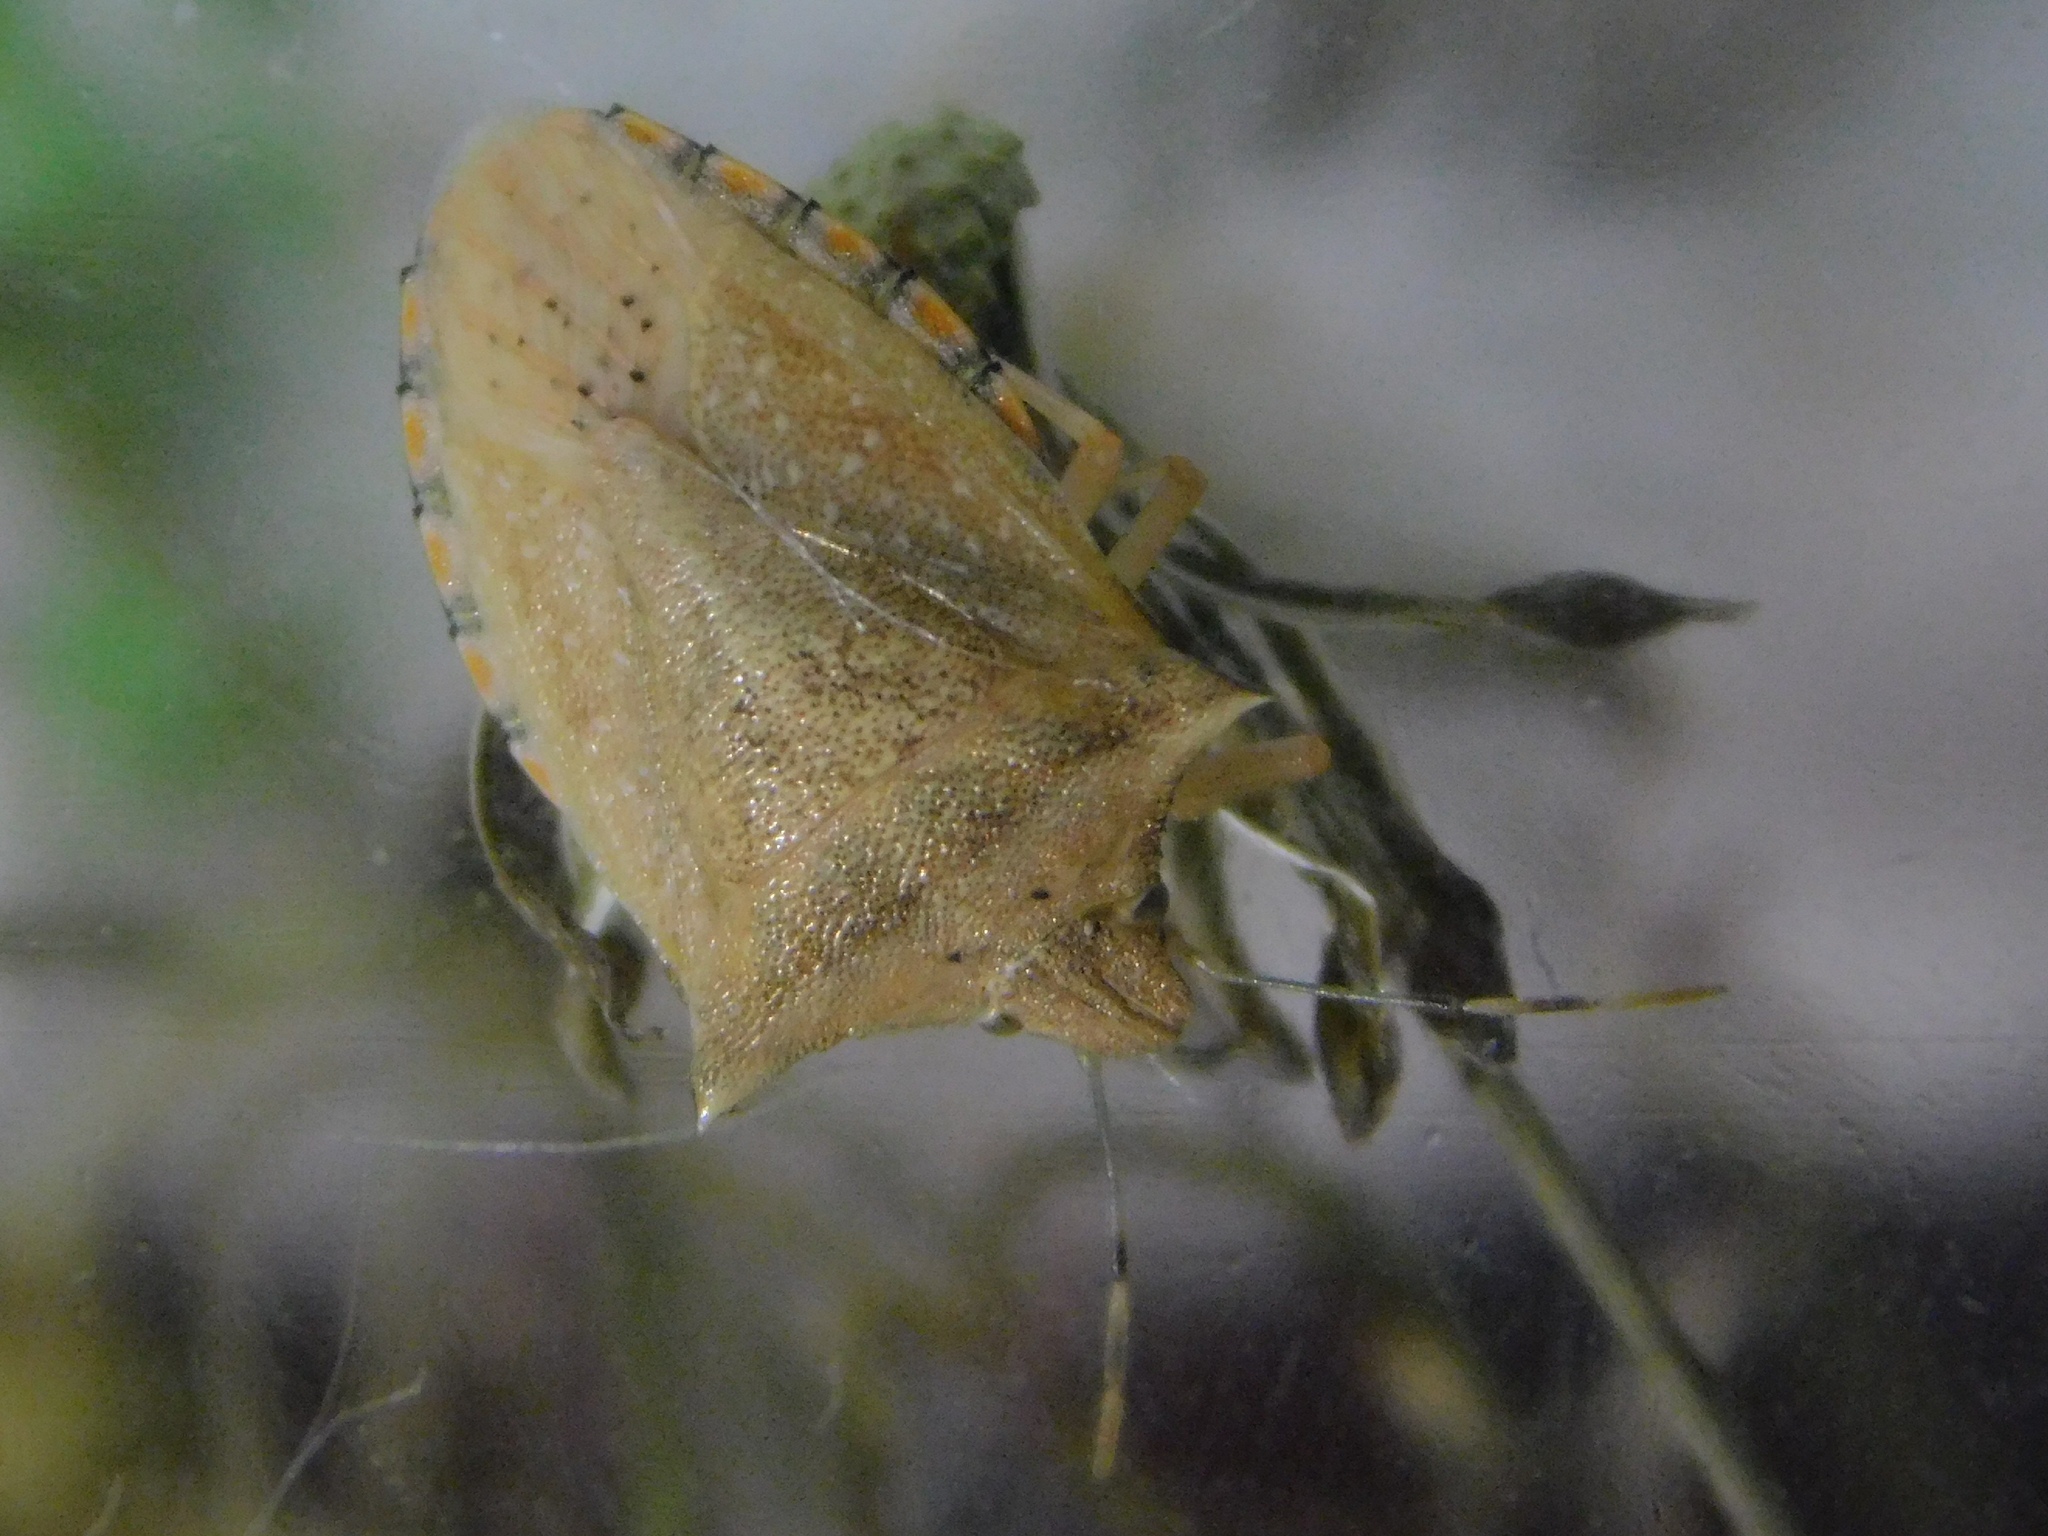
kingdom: Animalia
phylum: Arthropoda
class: Insecta
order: Hemiptera
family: Pentatomidae
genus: Thyanta
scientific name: Thyanta perditor
